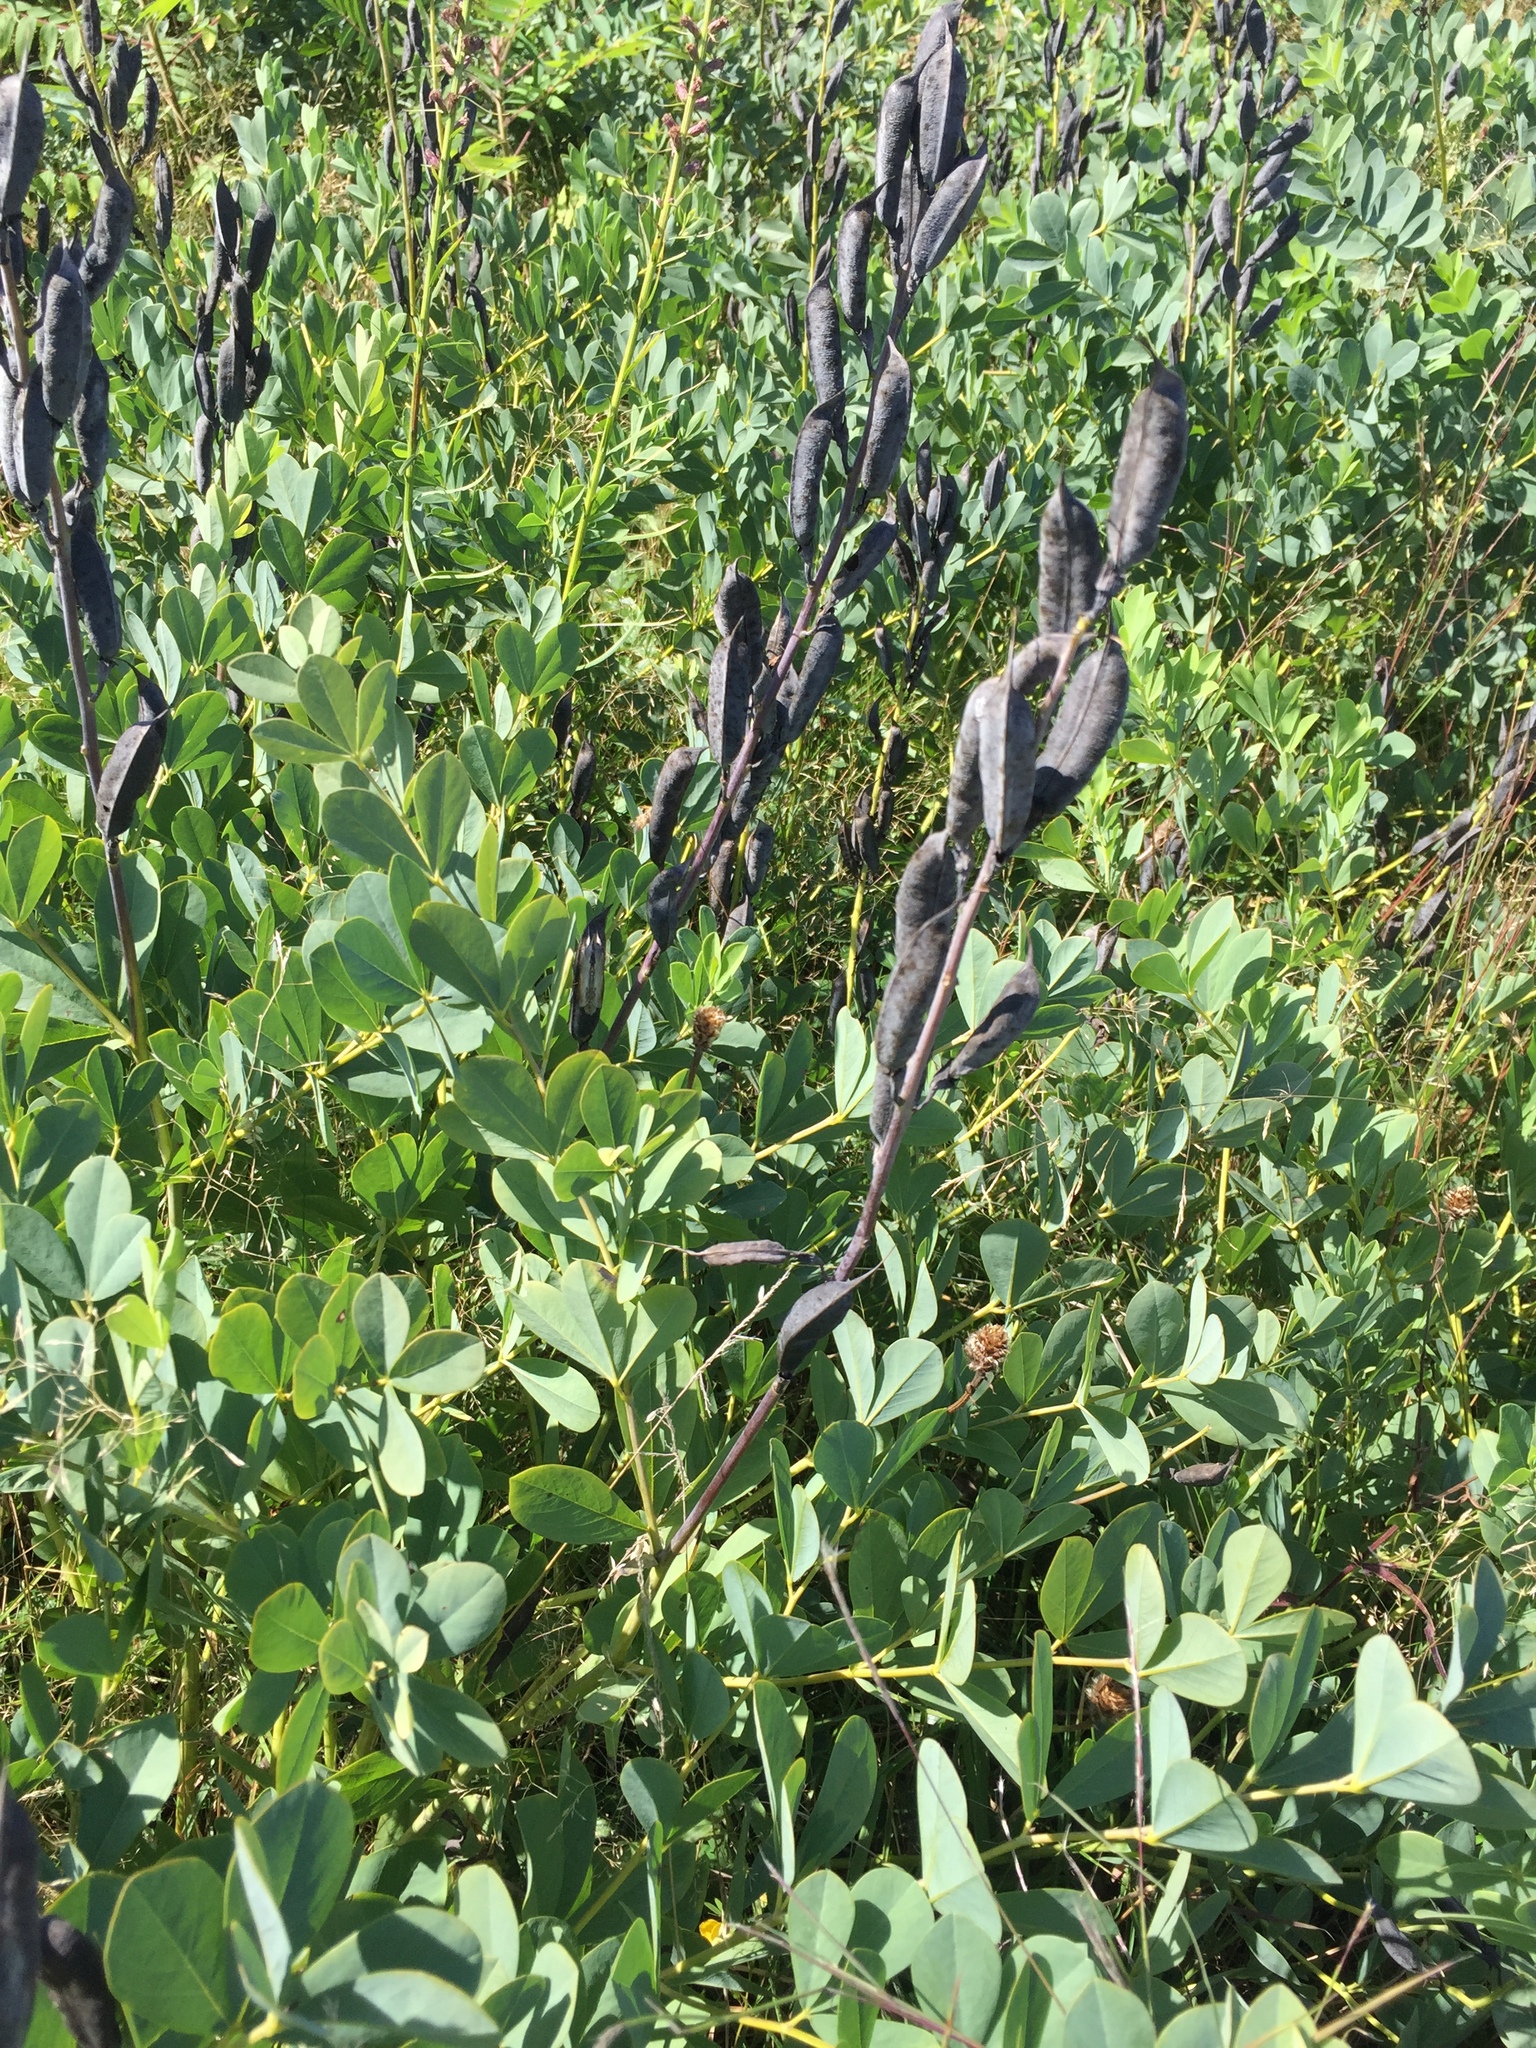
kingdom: Plantae
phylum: Tracheophyta
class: Magnoliopsida
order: Fabales
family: Fabaceae
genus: Baptisia
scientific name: Baptisia australis
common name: Blue false indigo
